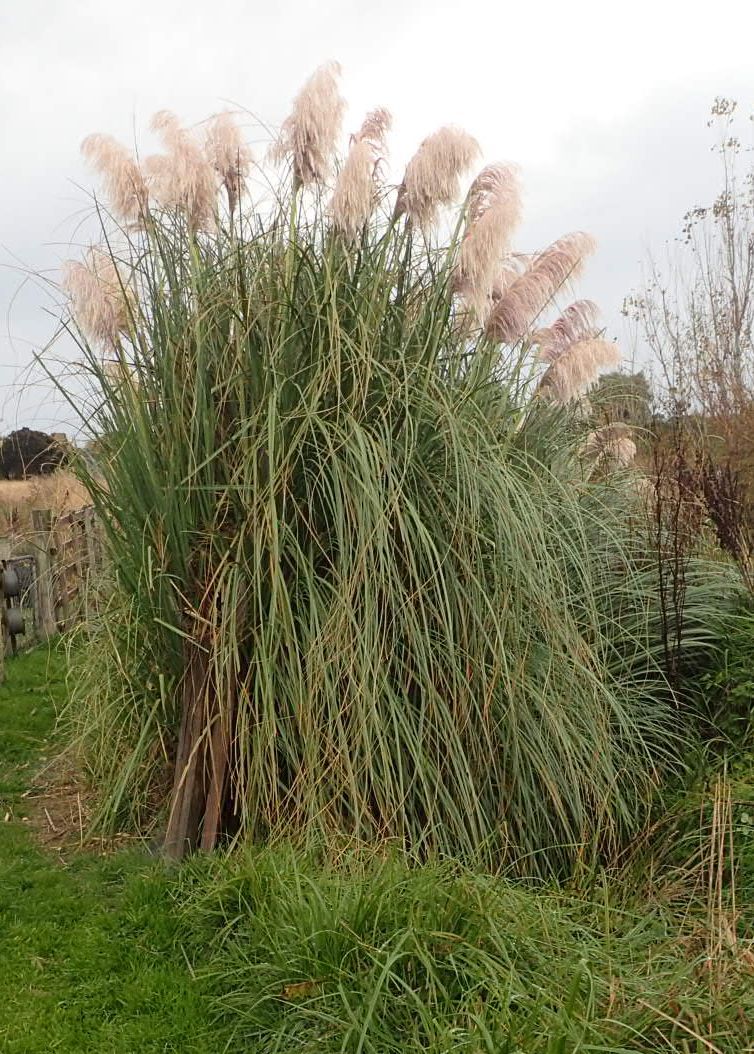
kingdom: Plantae
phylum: Tracheophyta
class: Liliopsida
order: Poales
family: Poaceae
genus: Cortaderia
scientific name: Cortaderia selloana
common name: Uruguayan pampas grass
